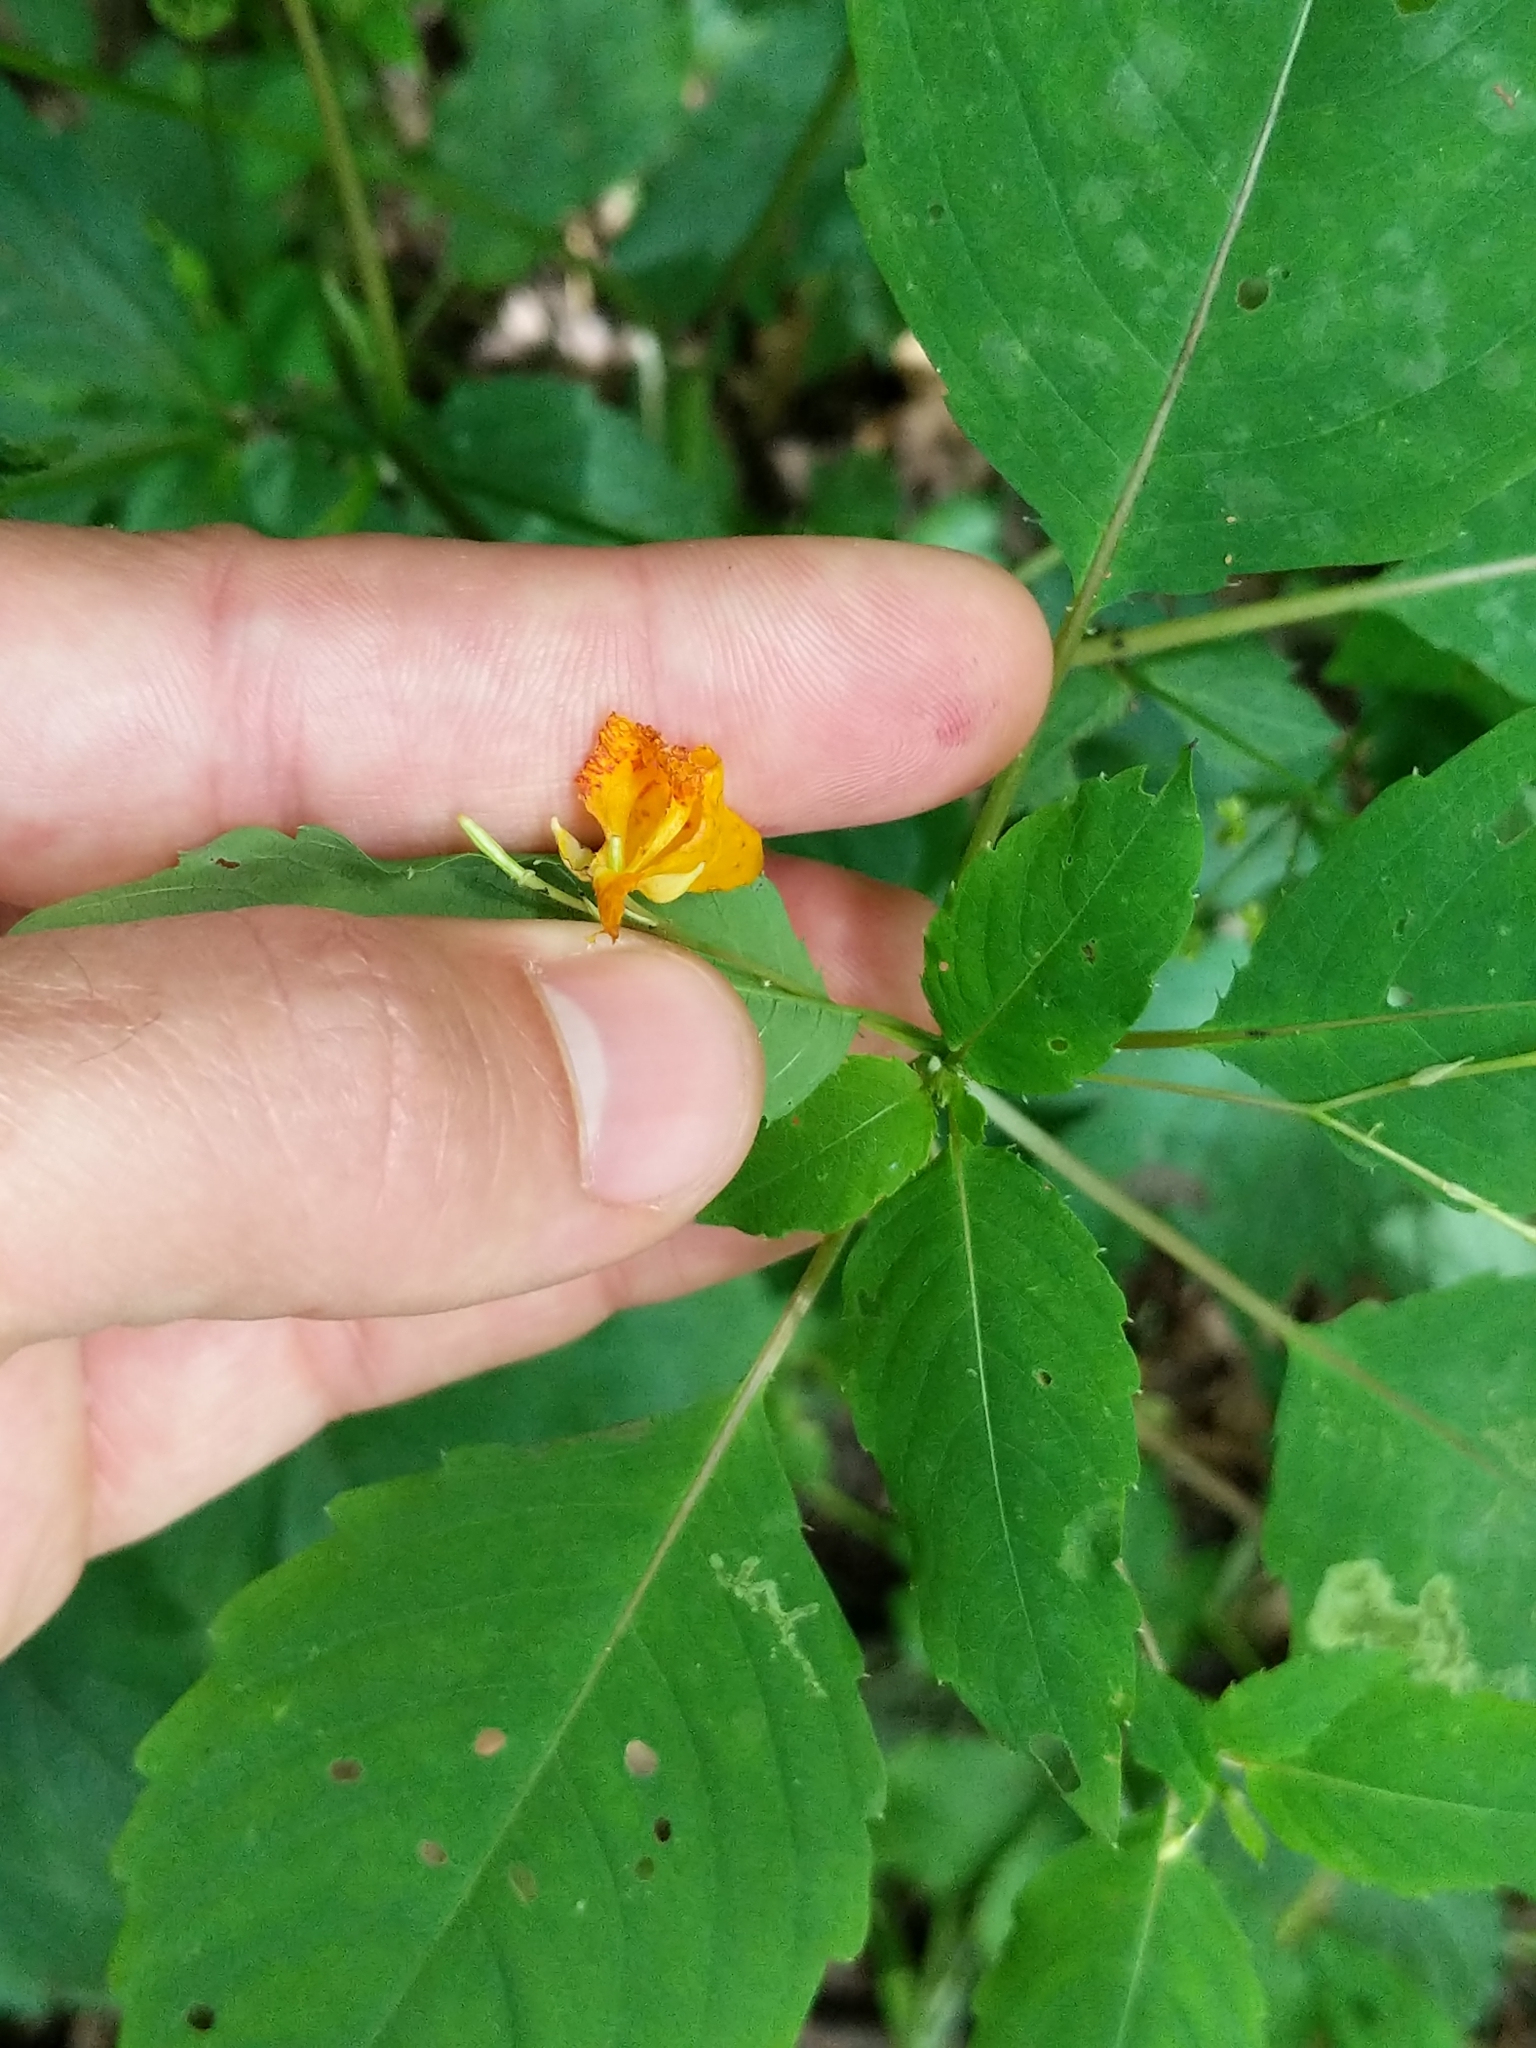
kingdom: Plantae
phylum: Tracheophyta
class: Magnoliopsida
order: Ericales
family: Balsaminaceae
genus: Impatiens
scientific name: Impatiens capensis
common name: Orange balsam
